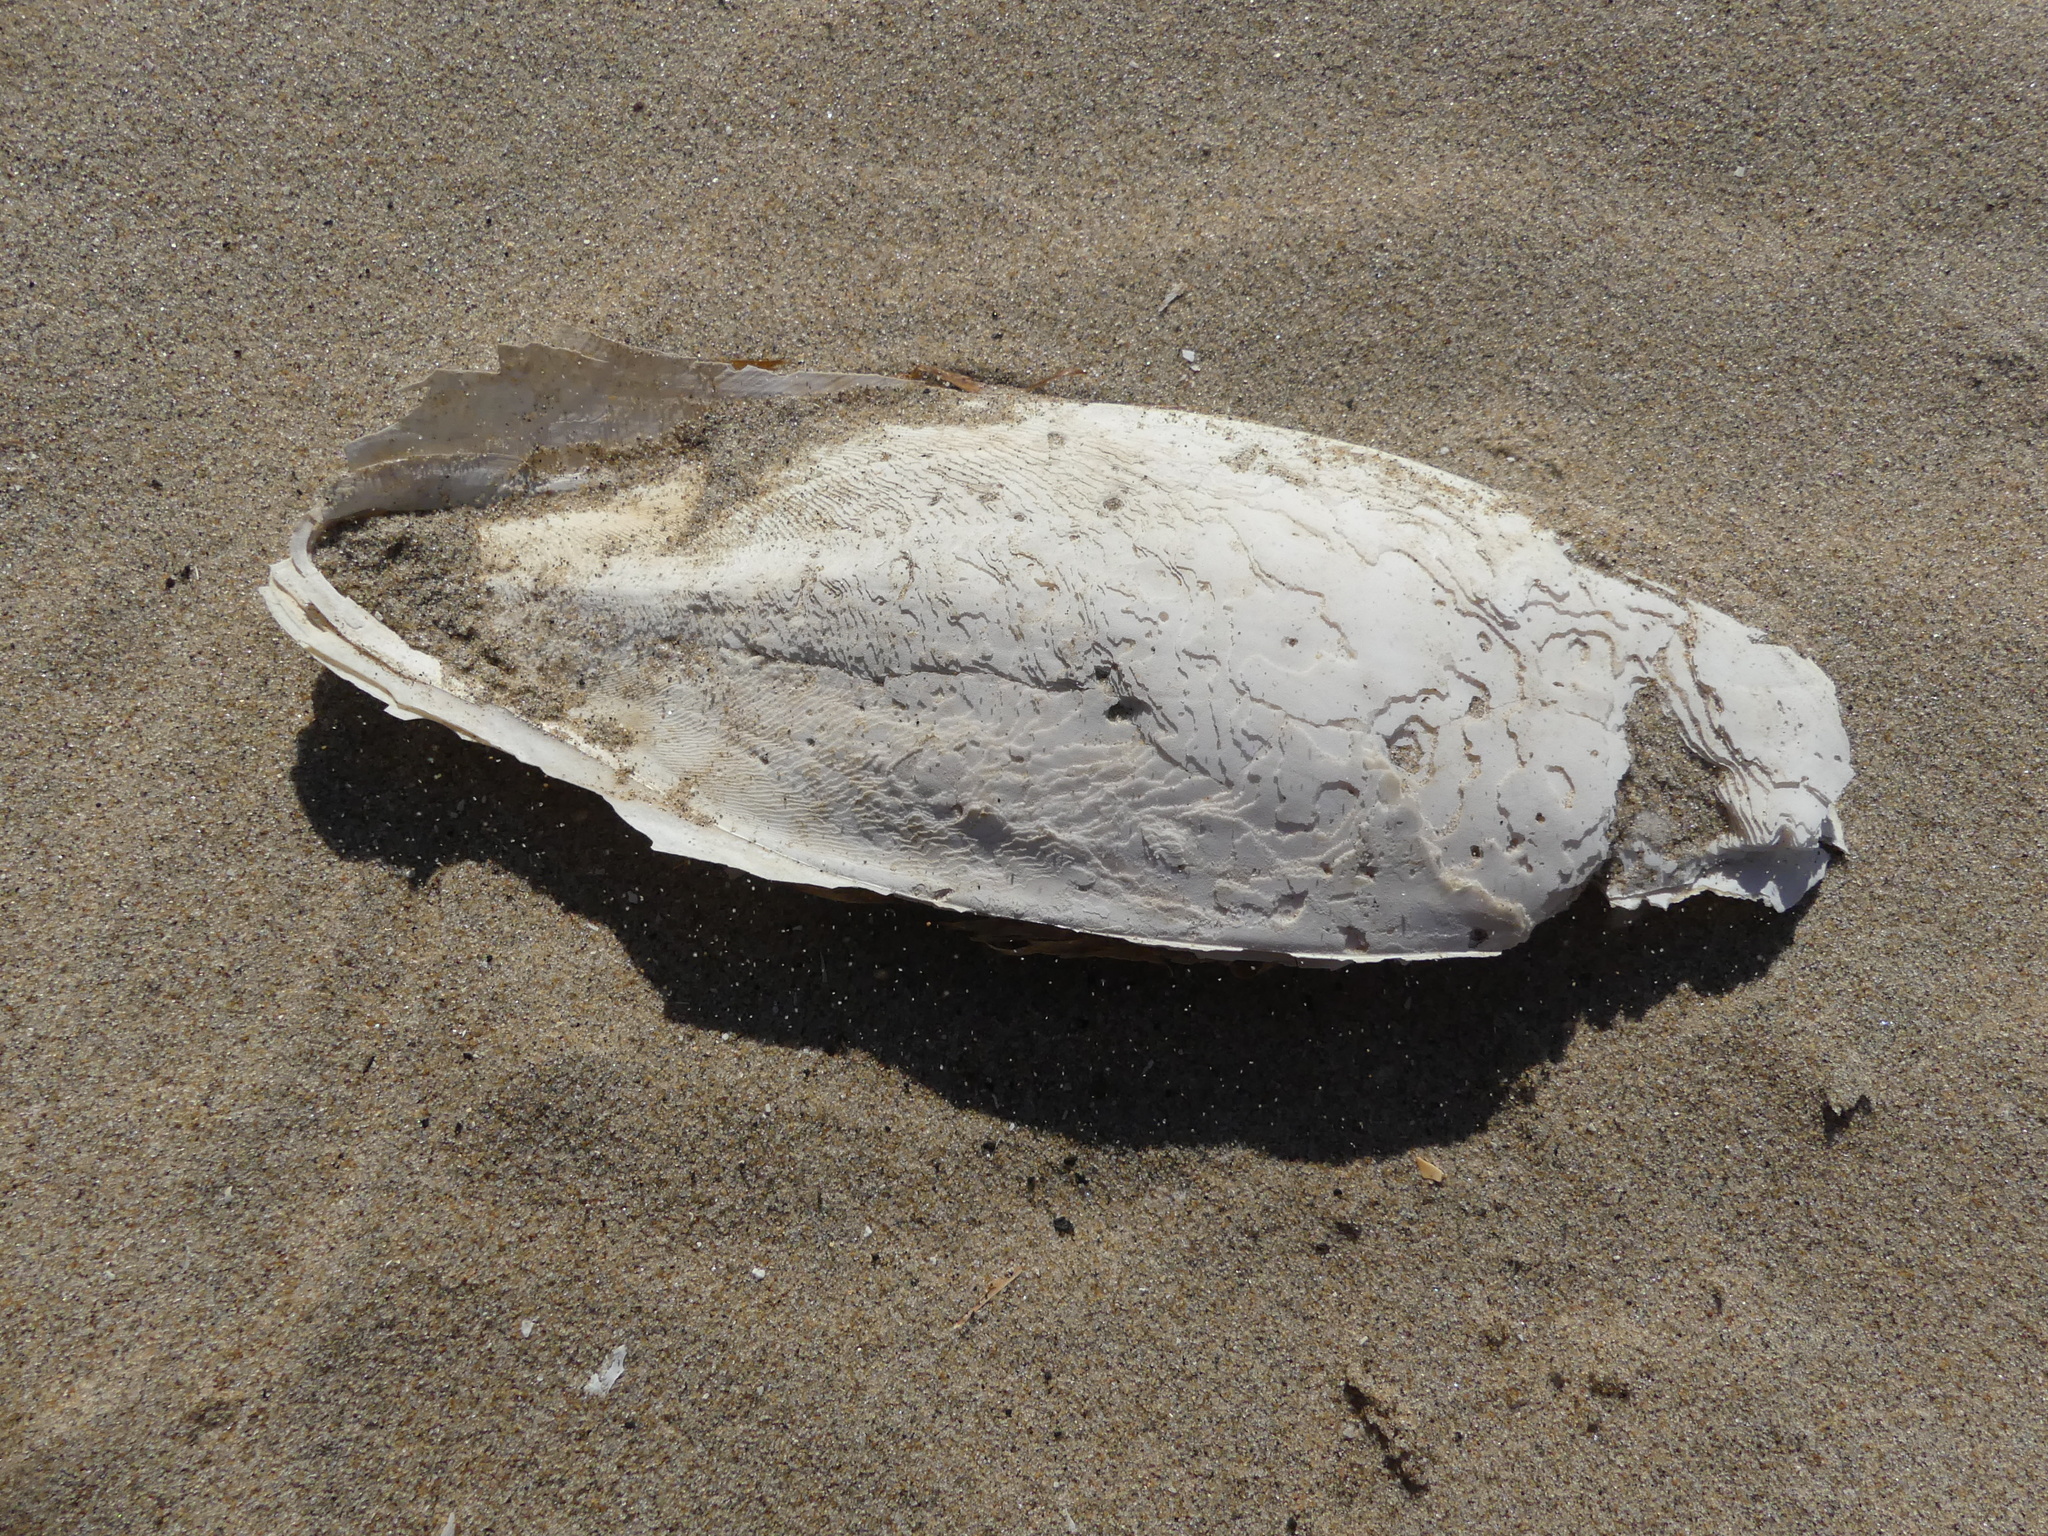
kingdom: Animalia
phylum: Mollusca
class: Cephalopoda
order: Sepiida
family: Sepiidae
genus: Sepia
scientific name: Sepia officinalis
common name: Common cuttlefish
